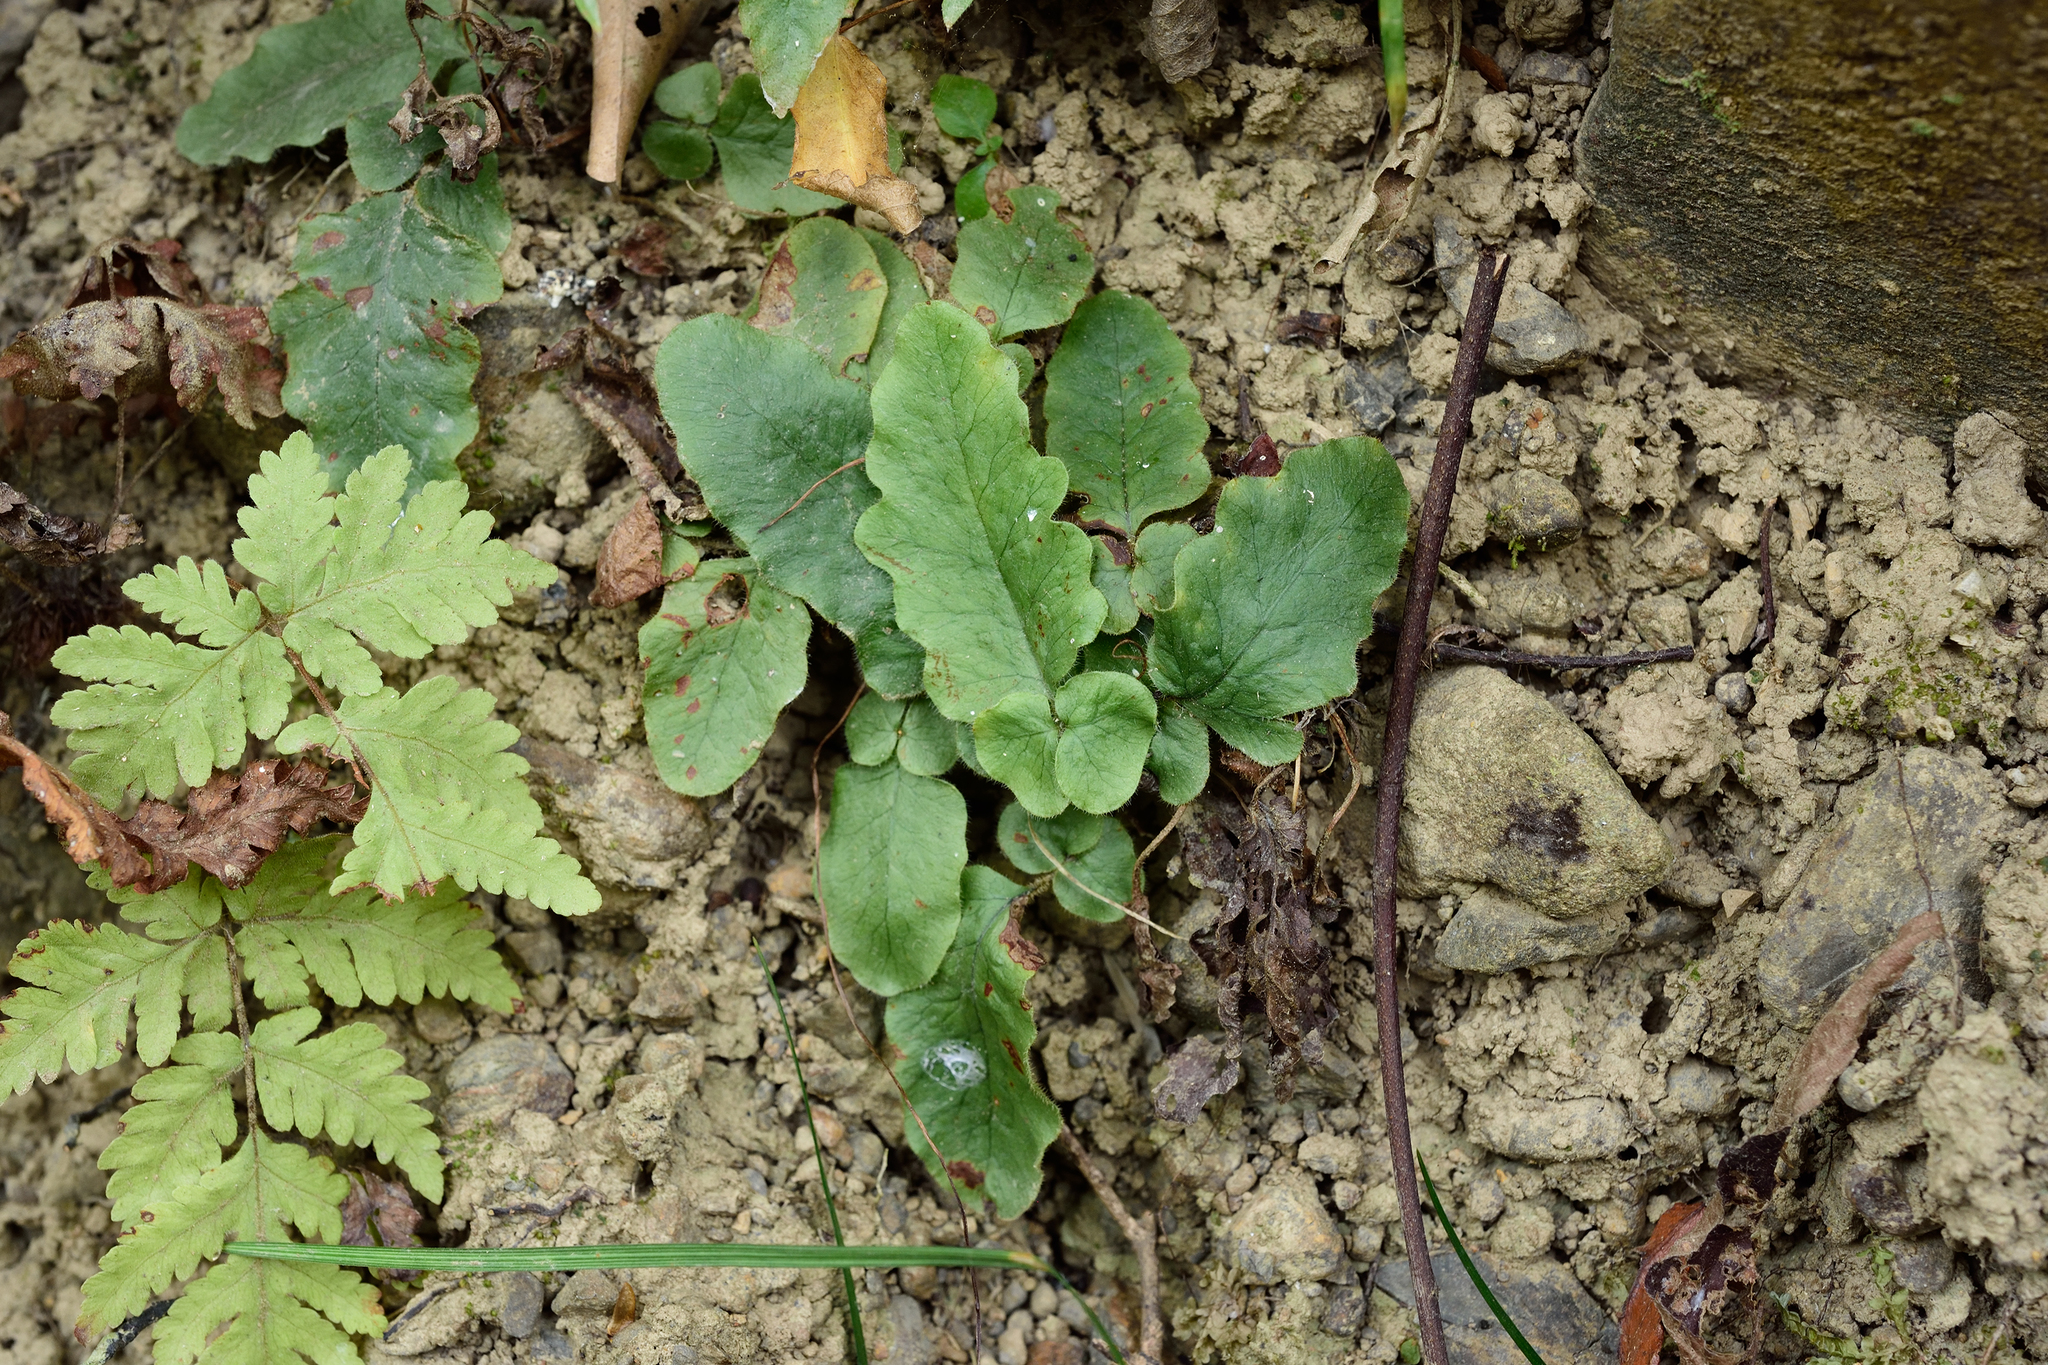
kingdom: Plantae
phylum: Tracheophyta
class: Polypodiopsida
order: Polypodiales
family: Tectariaceae
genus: Tectaria
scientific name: Tectaria zeilanica
